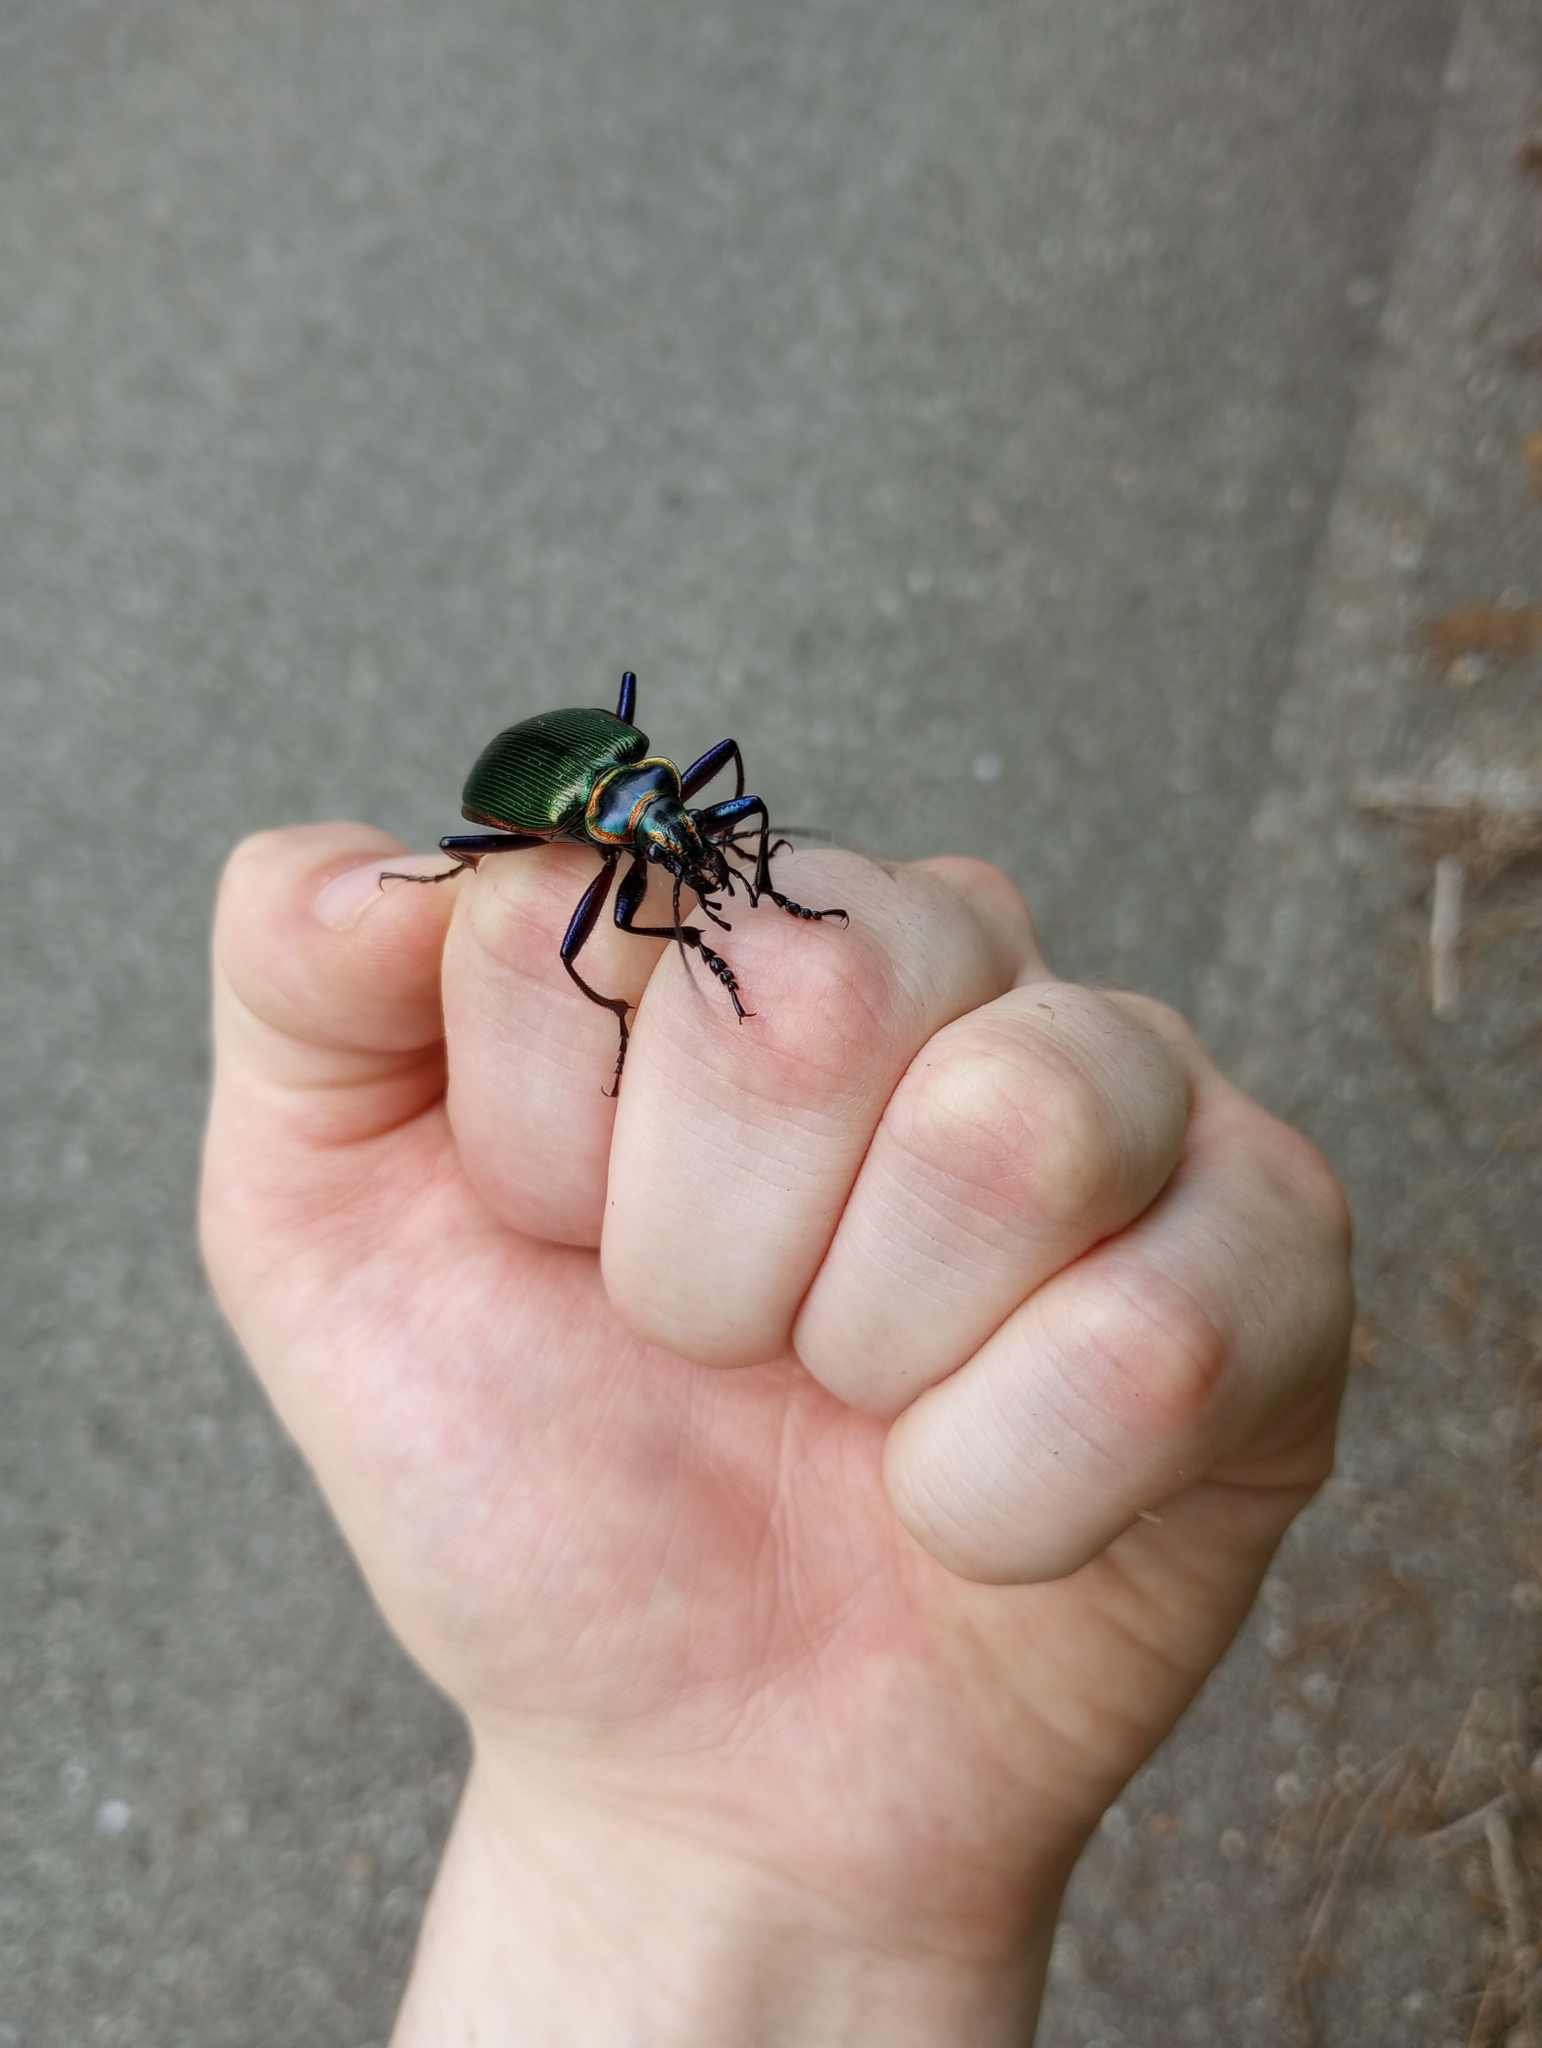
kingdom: Animalia
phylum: Arthropoda
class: Insecta
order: Coleoptera
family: Carabidae
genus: Calosoma
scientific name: Calosoma scrutator
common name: Fiery searcher beetle
